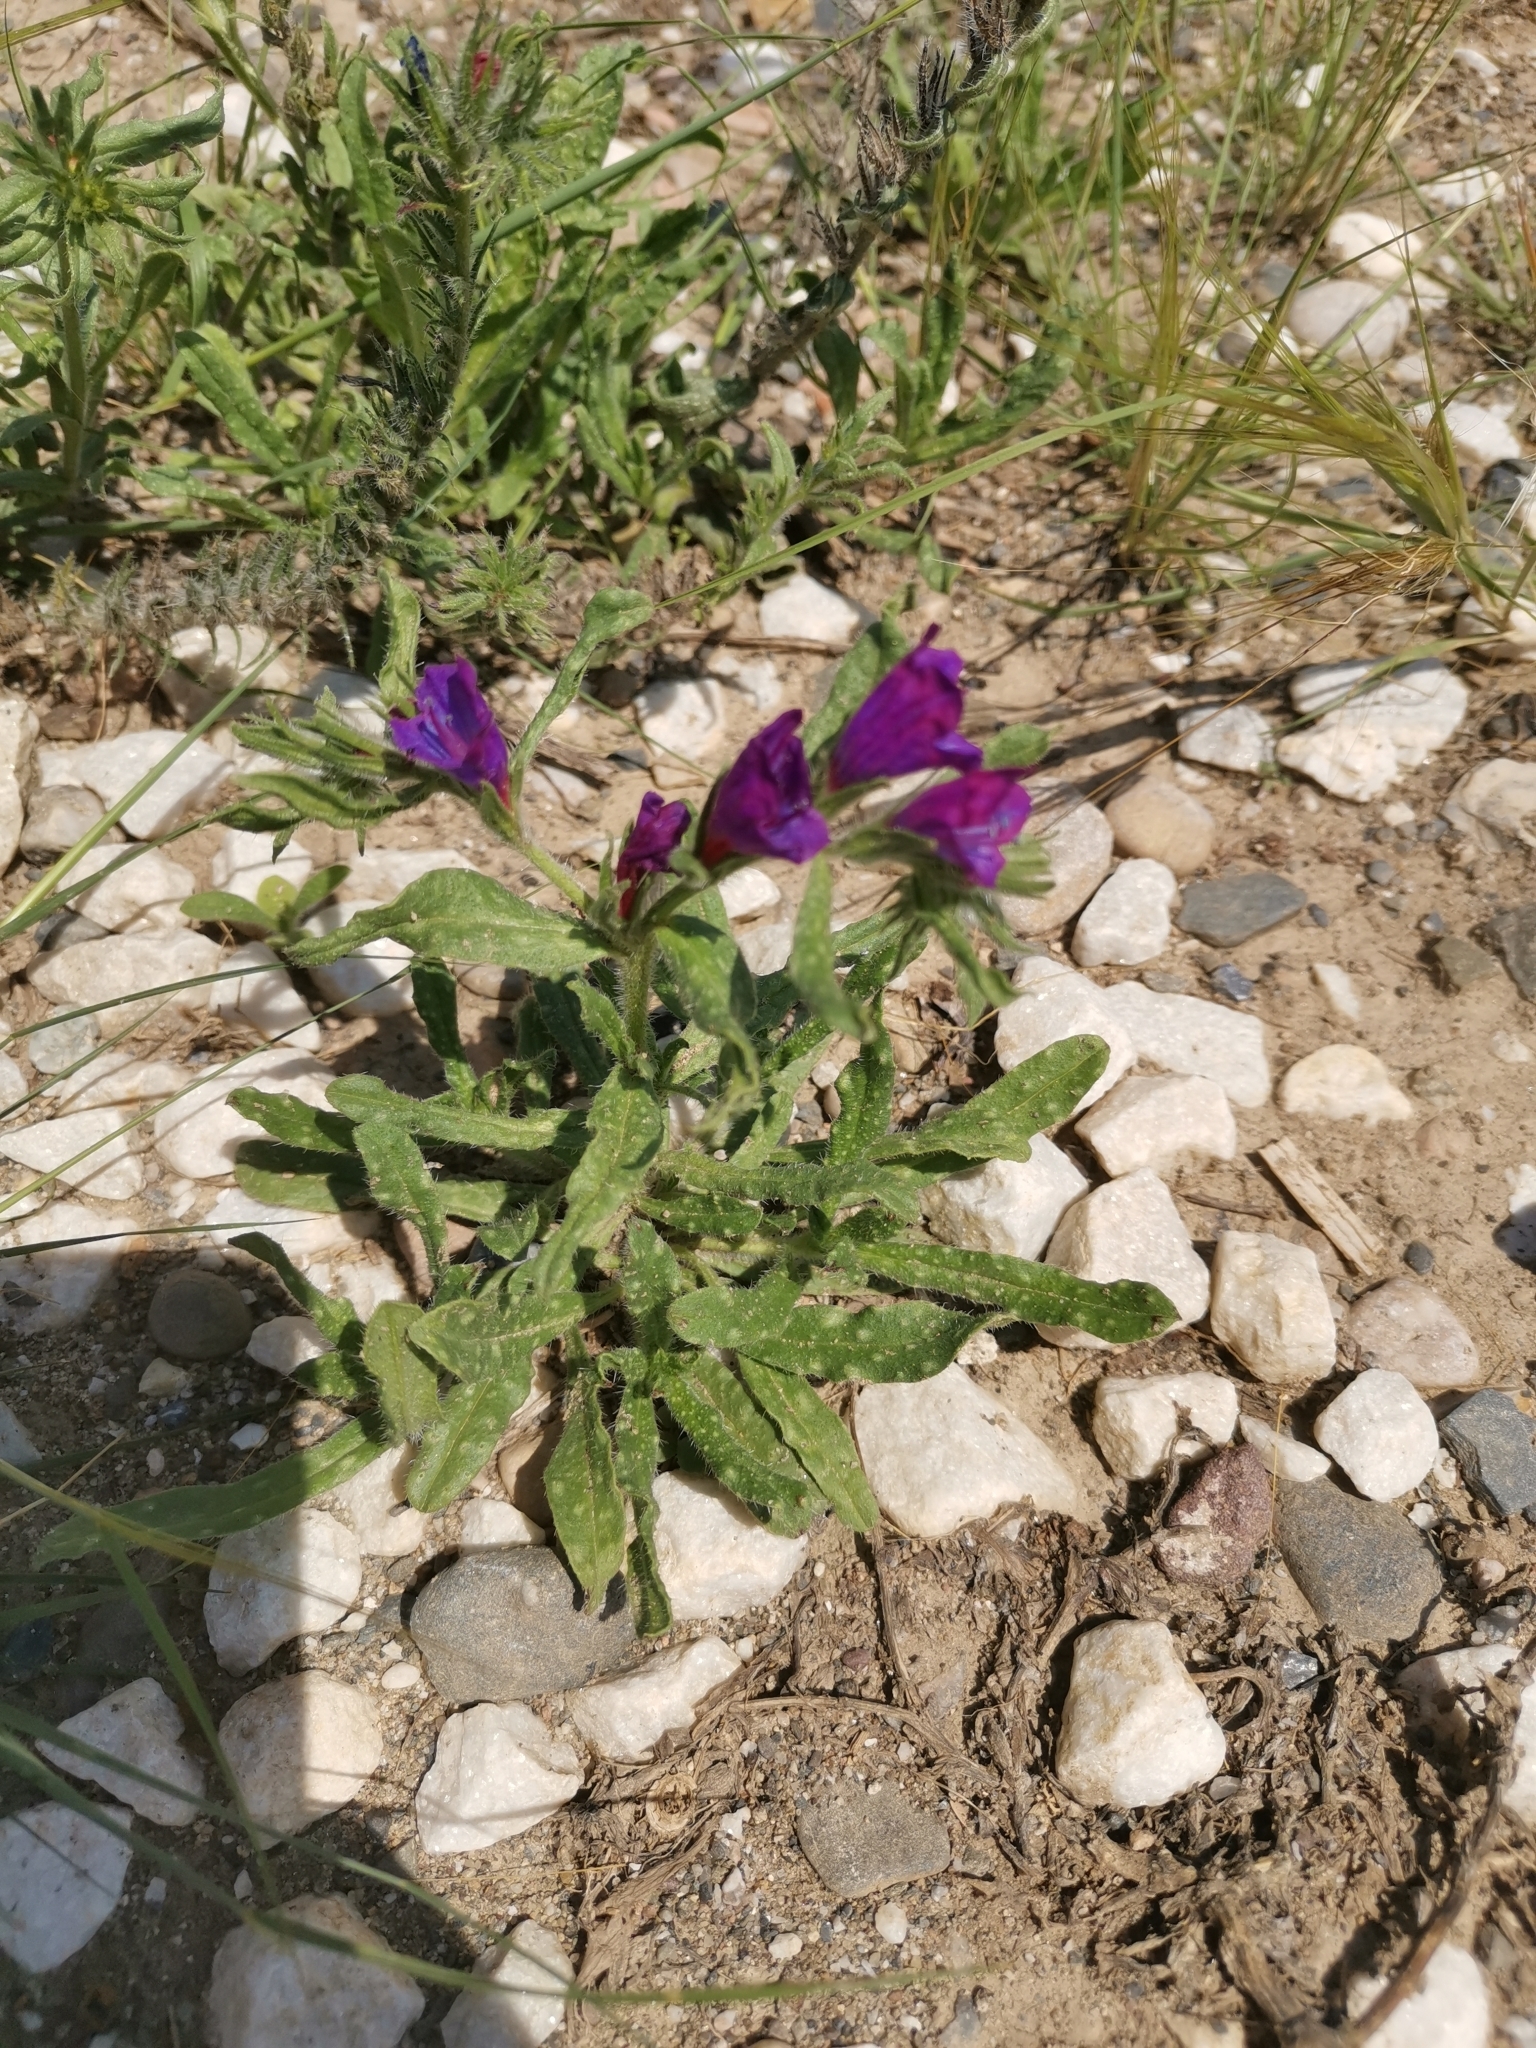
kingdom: Plantae
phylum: Tracheophyta
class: Magnoliopsida
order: Boraginales
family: Boraginaceae
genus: Echium
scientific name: Echium sabulicola
